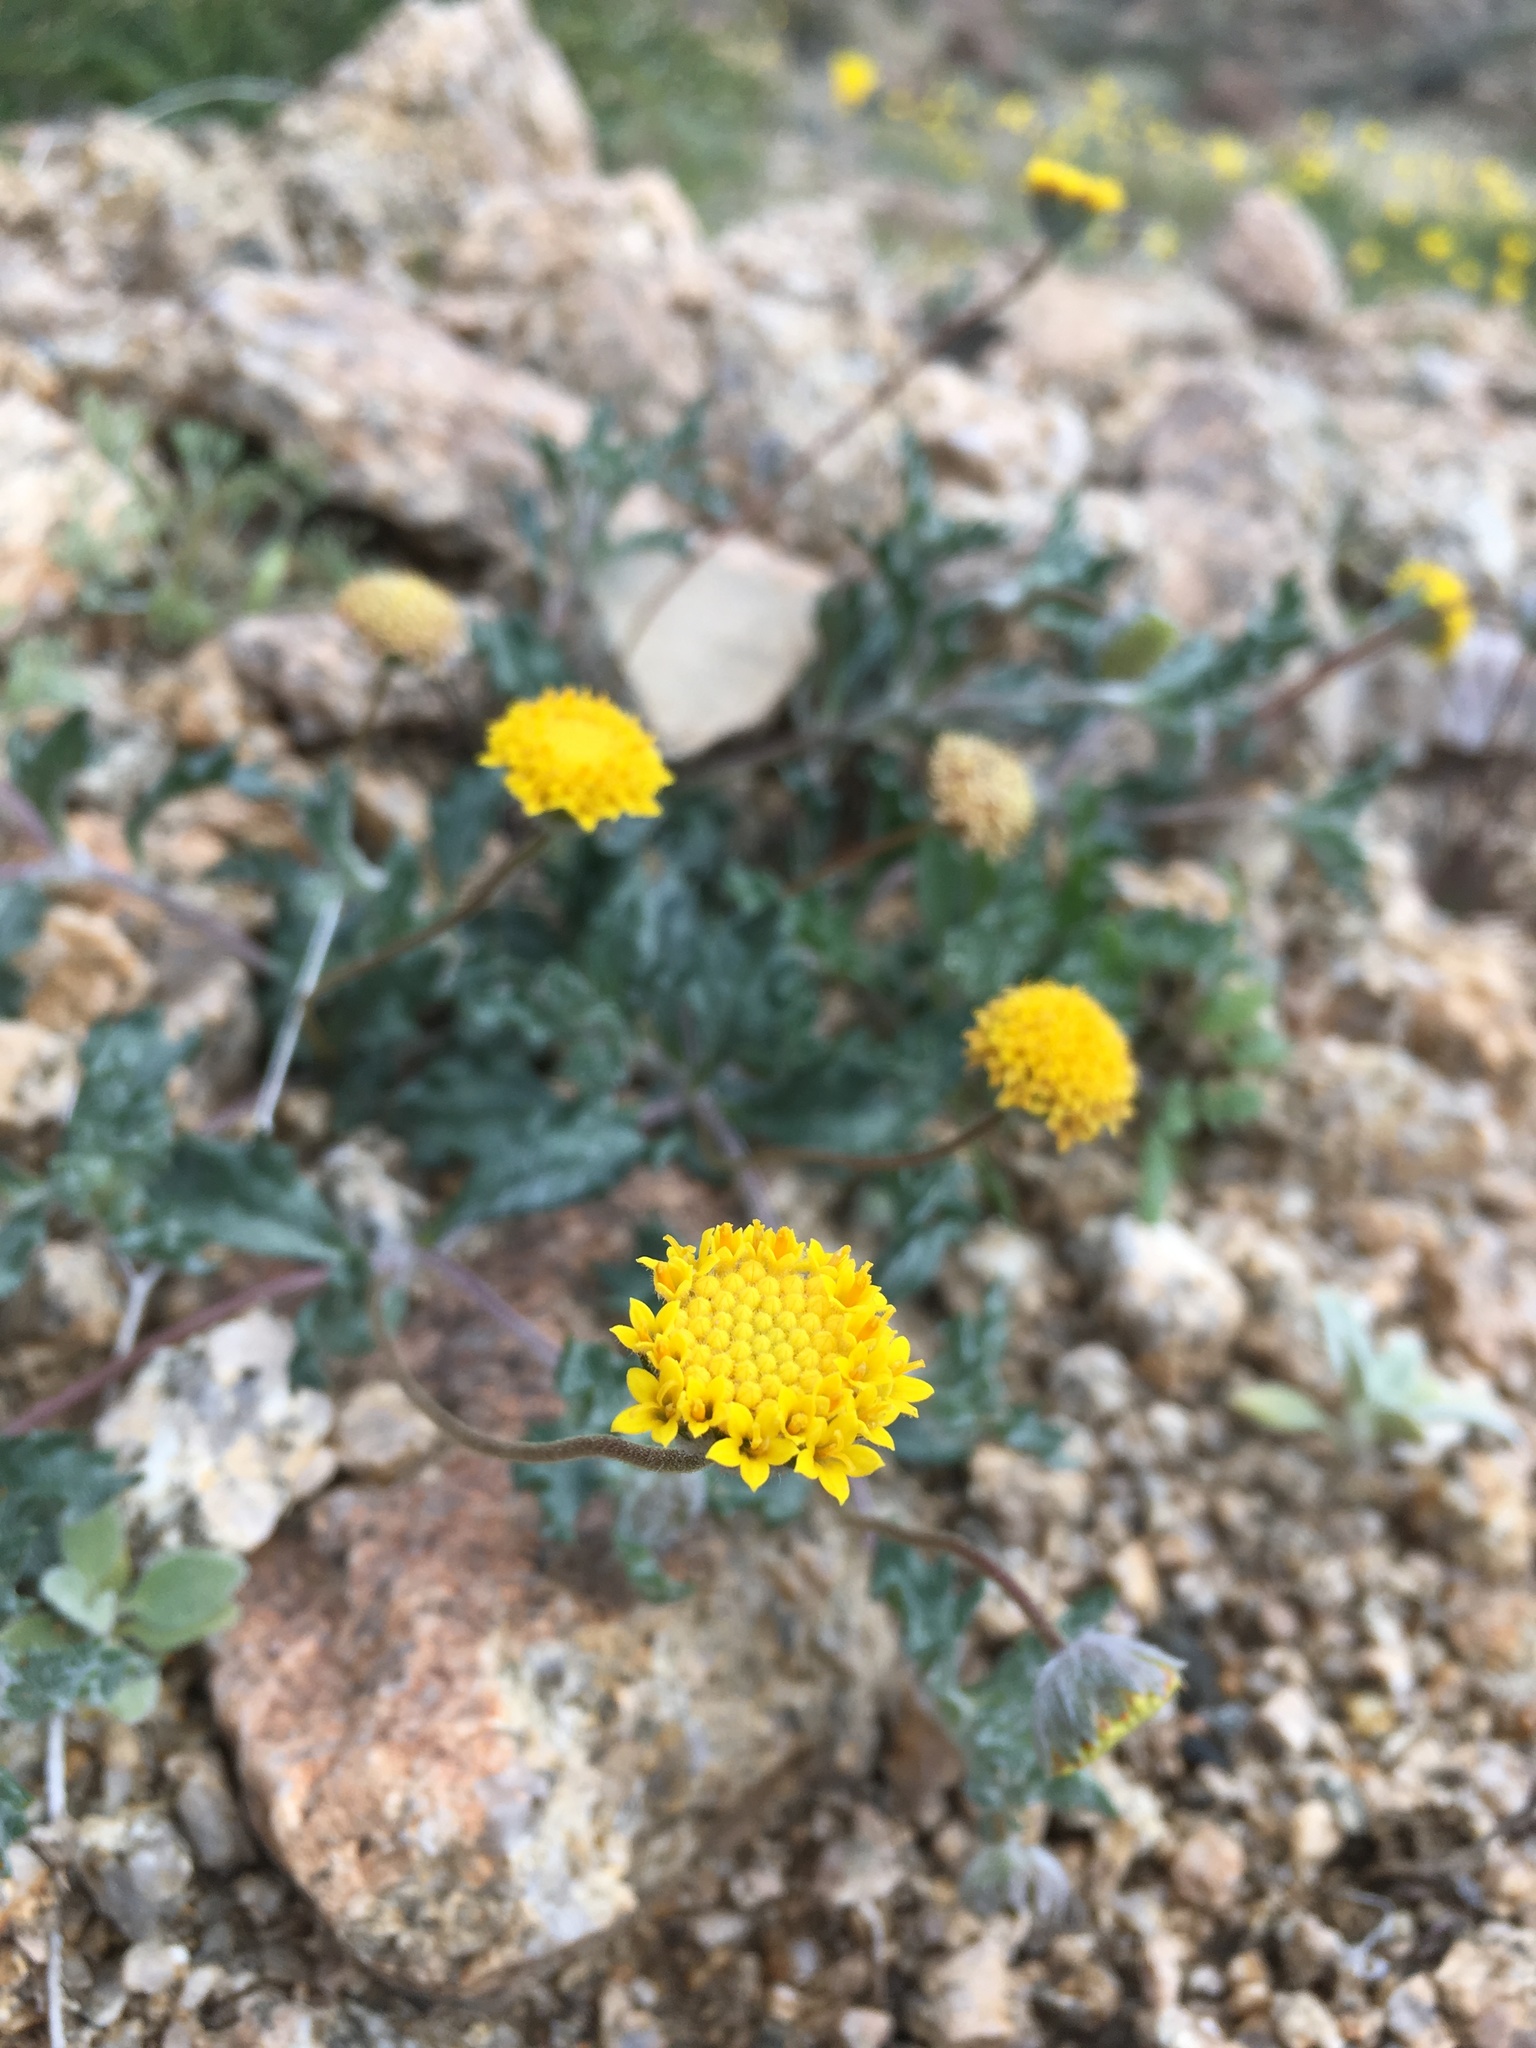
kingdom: Plantae
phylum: Tracheophyta
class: Magnoliopsida
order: Asterales
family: Asteraceae
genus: Trichoptilium
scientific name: Trichoptilium incisum
